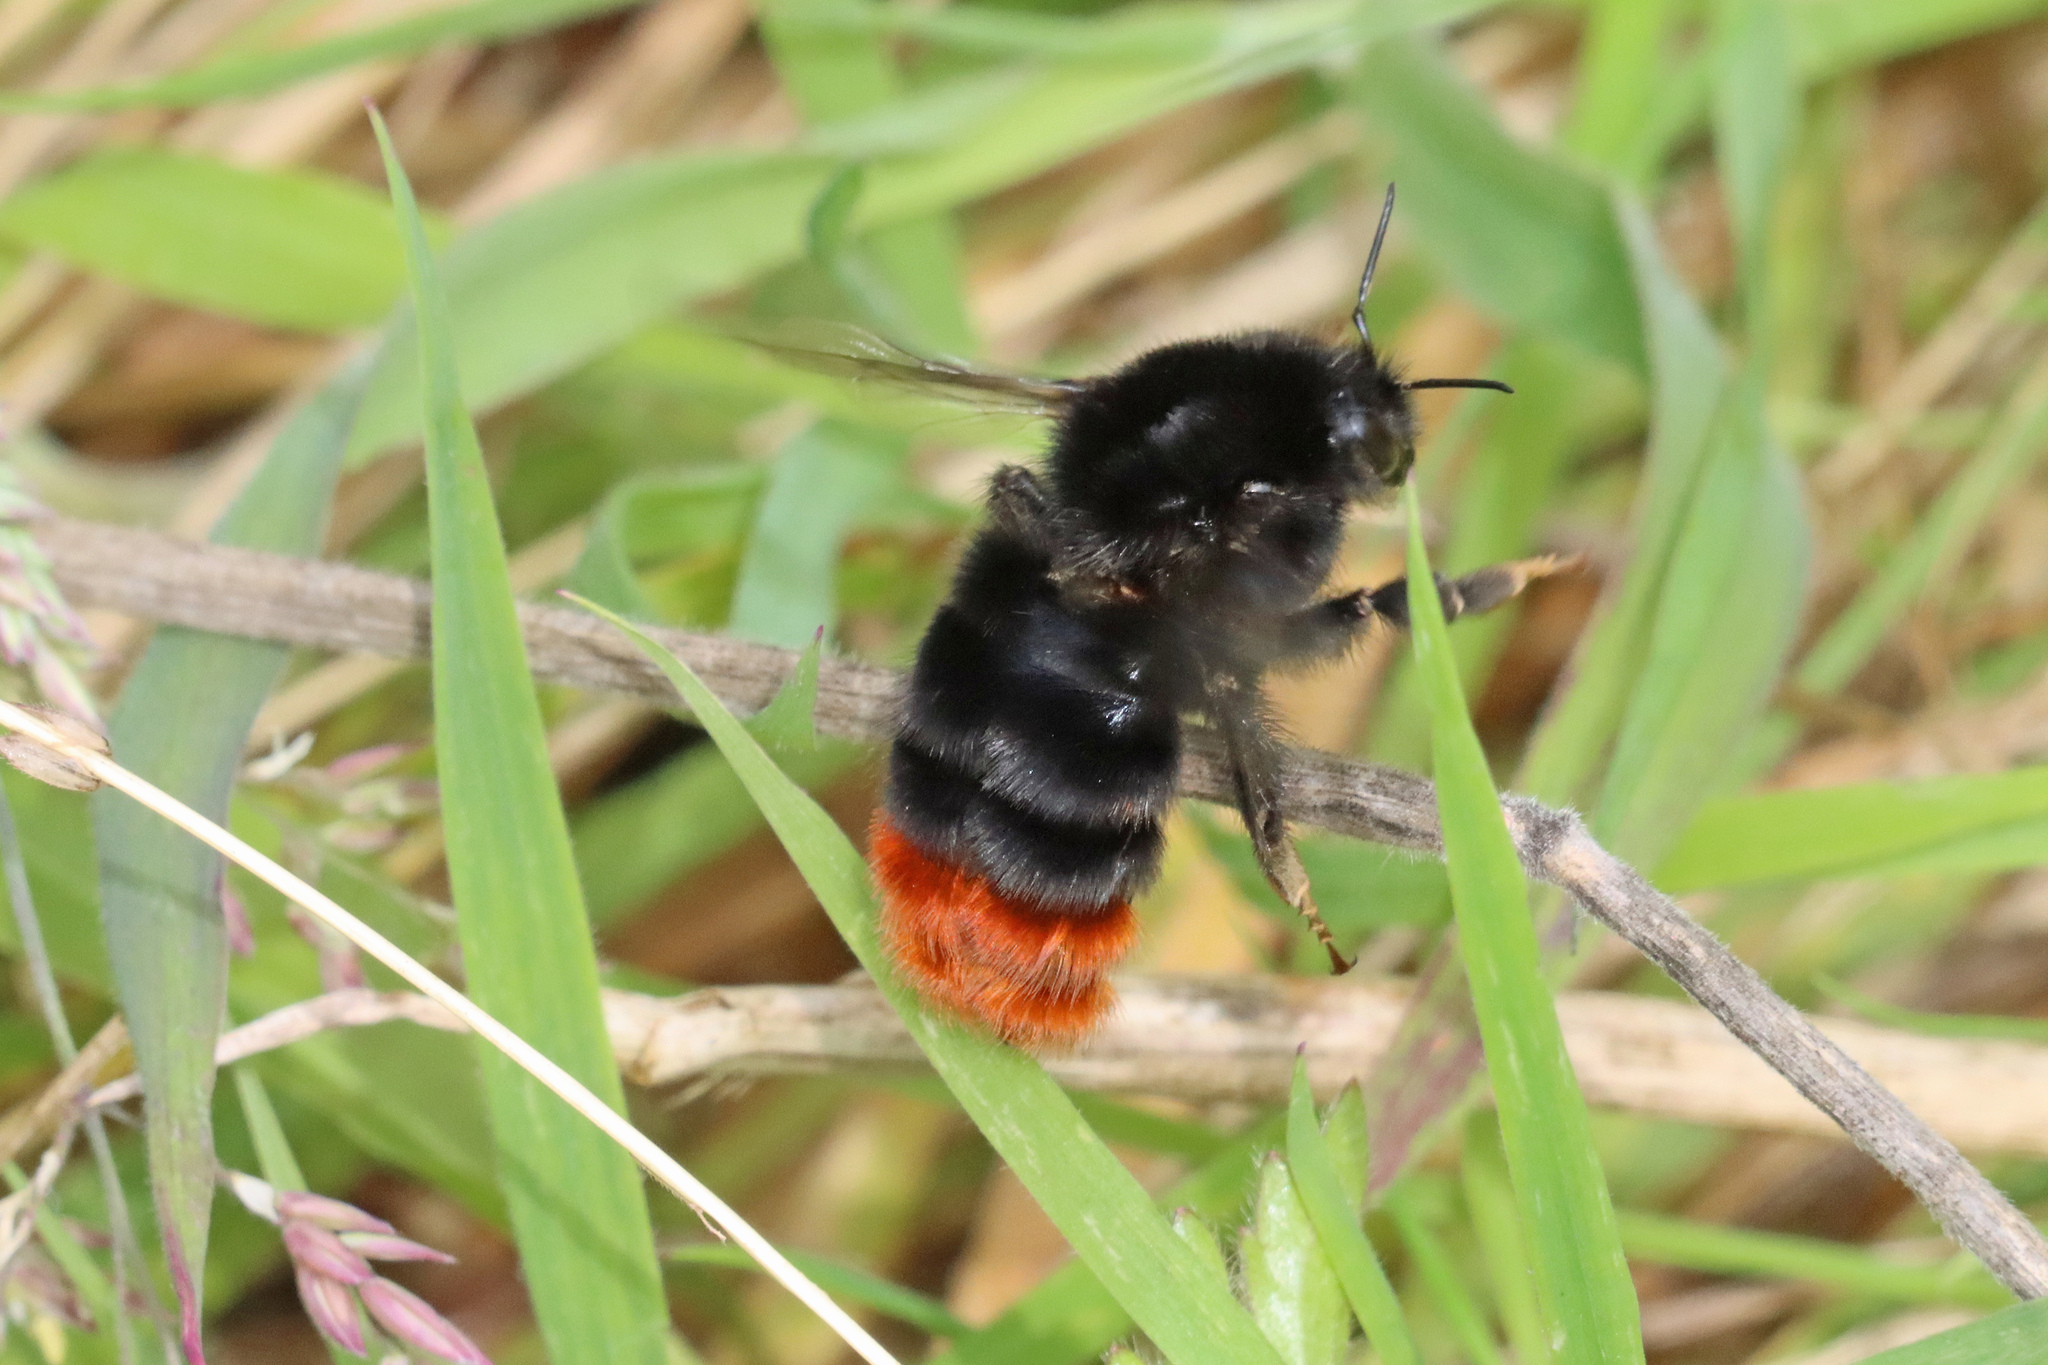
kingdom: Animalia
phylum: Arthropoda
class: Insecta
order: Hymenoptera
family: Apidae
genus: Bombus
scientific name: Bombus lapidarius
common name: Large red-tailed humble-bee
